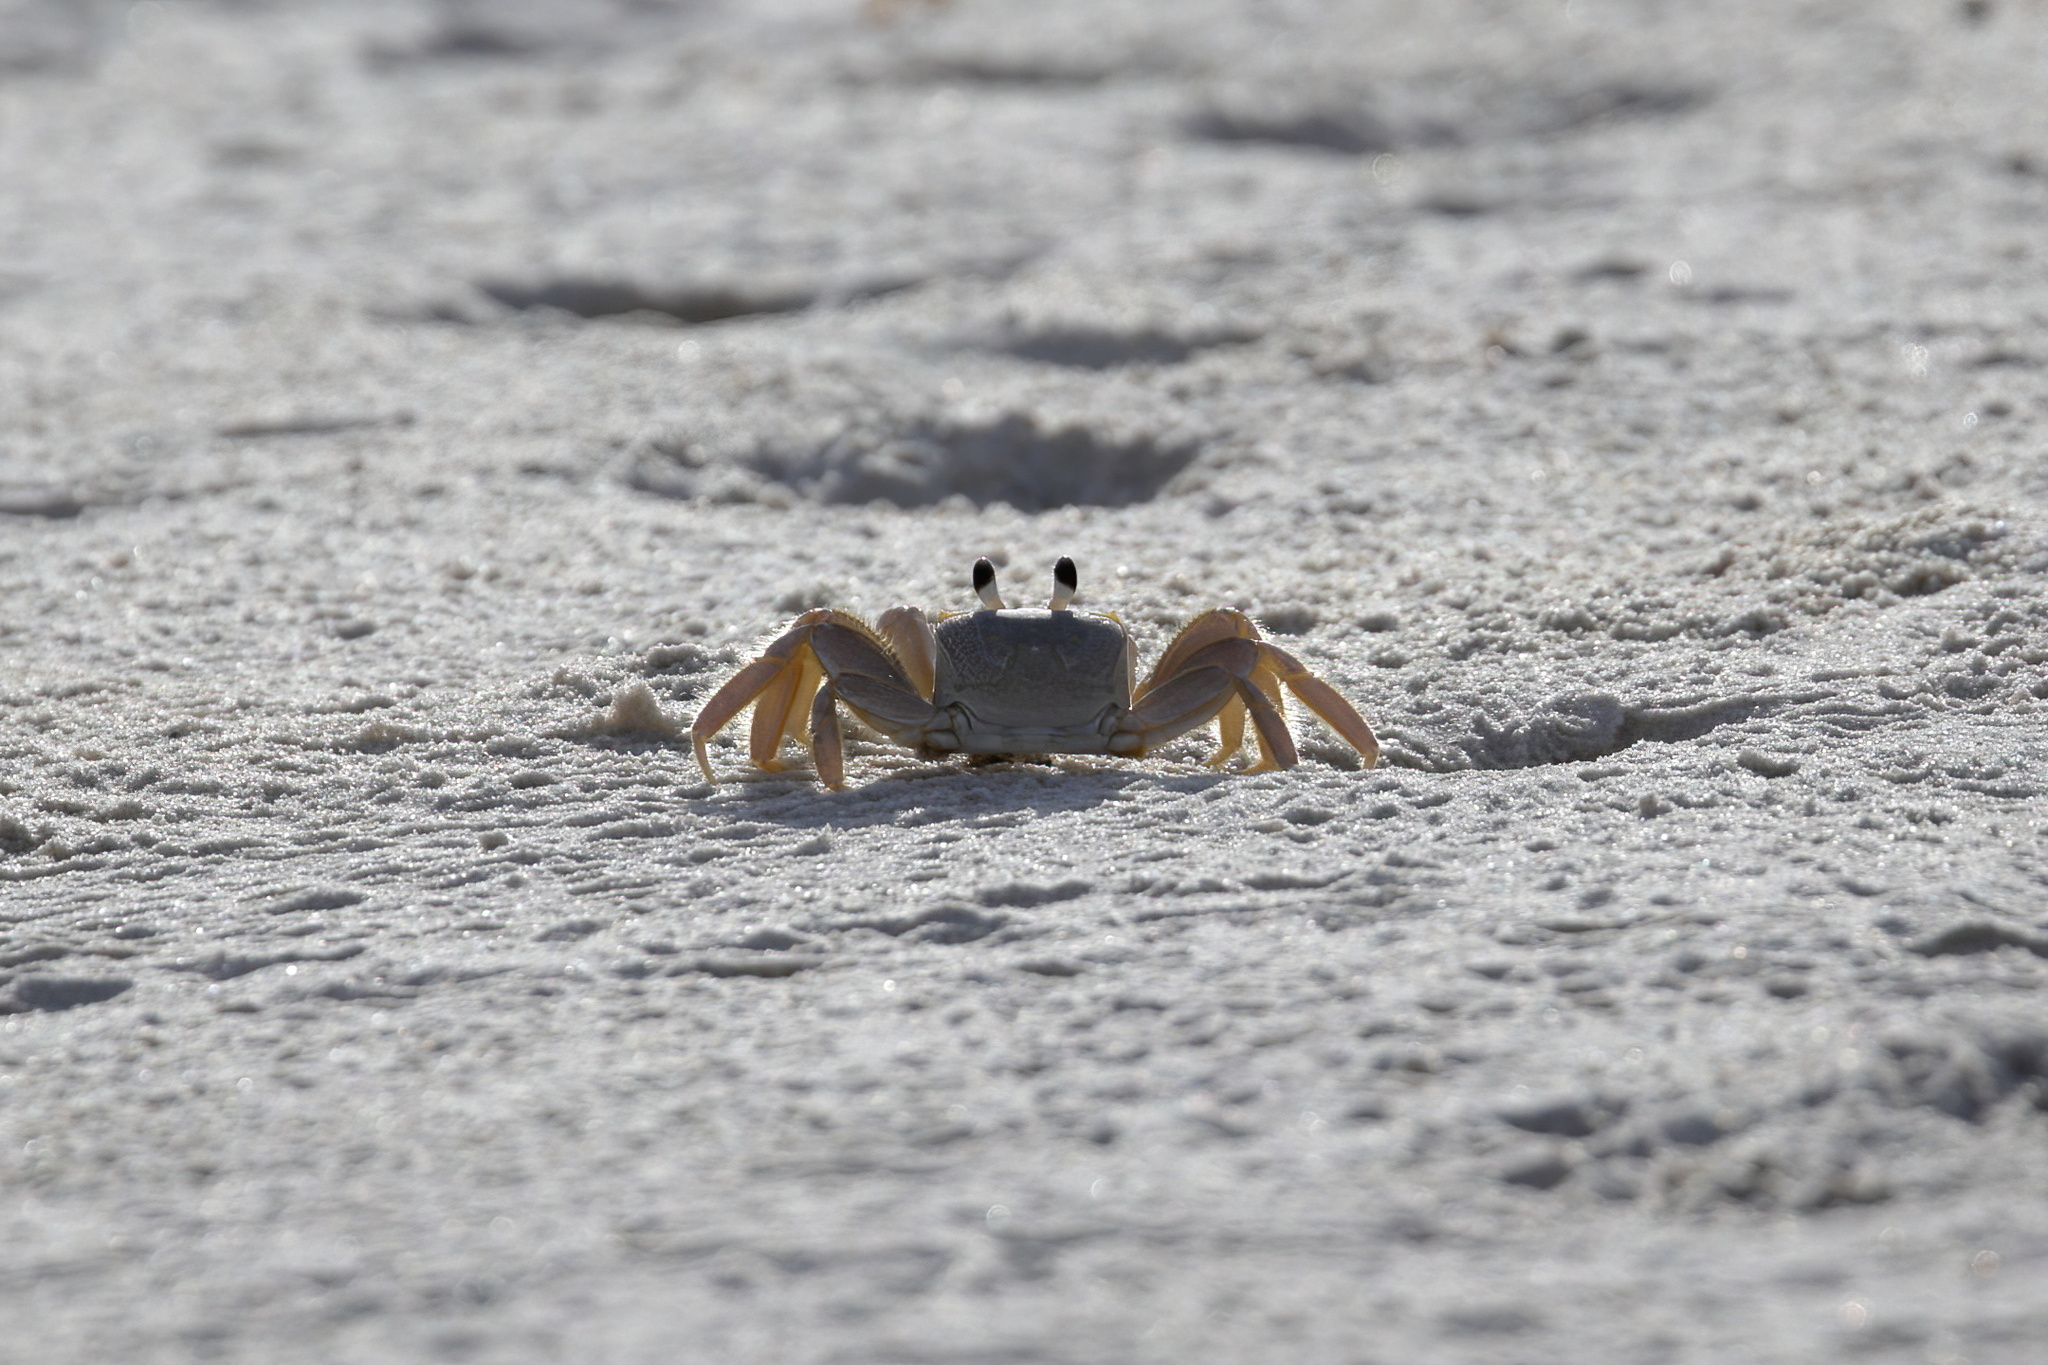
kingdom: Animalia
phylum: Arthropoda
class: Malacostraca
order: Decapoda
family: Ocypodidae
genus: Ocypode
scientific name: Ocypode quadrata
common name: Ghost crab
